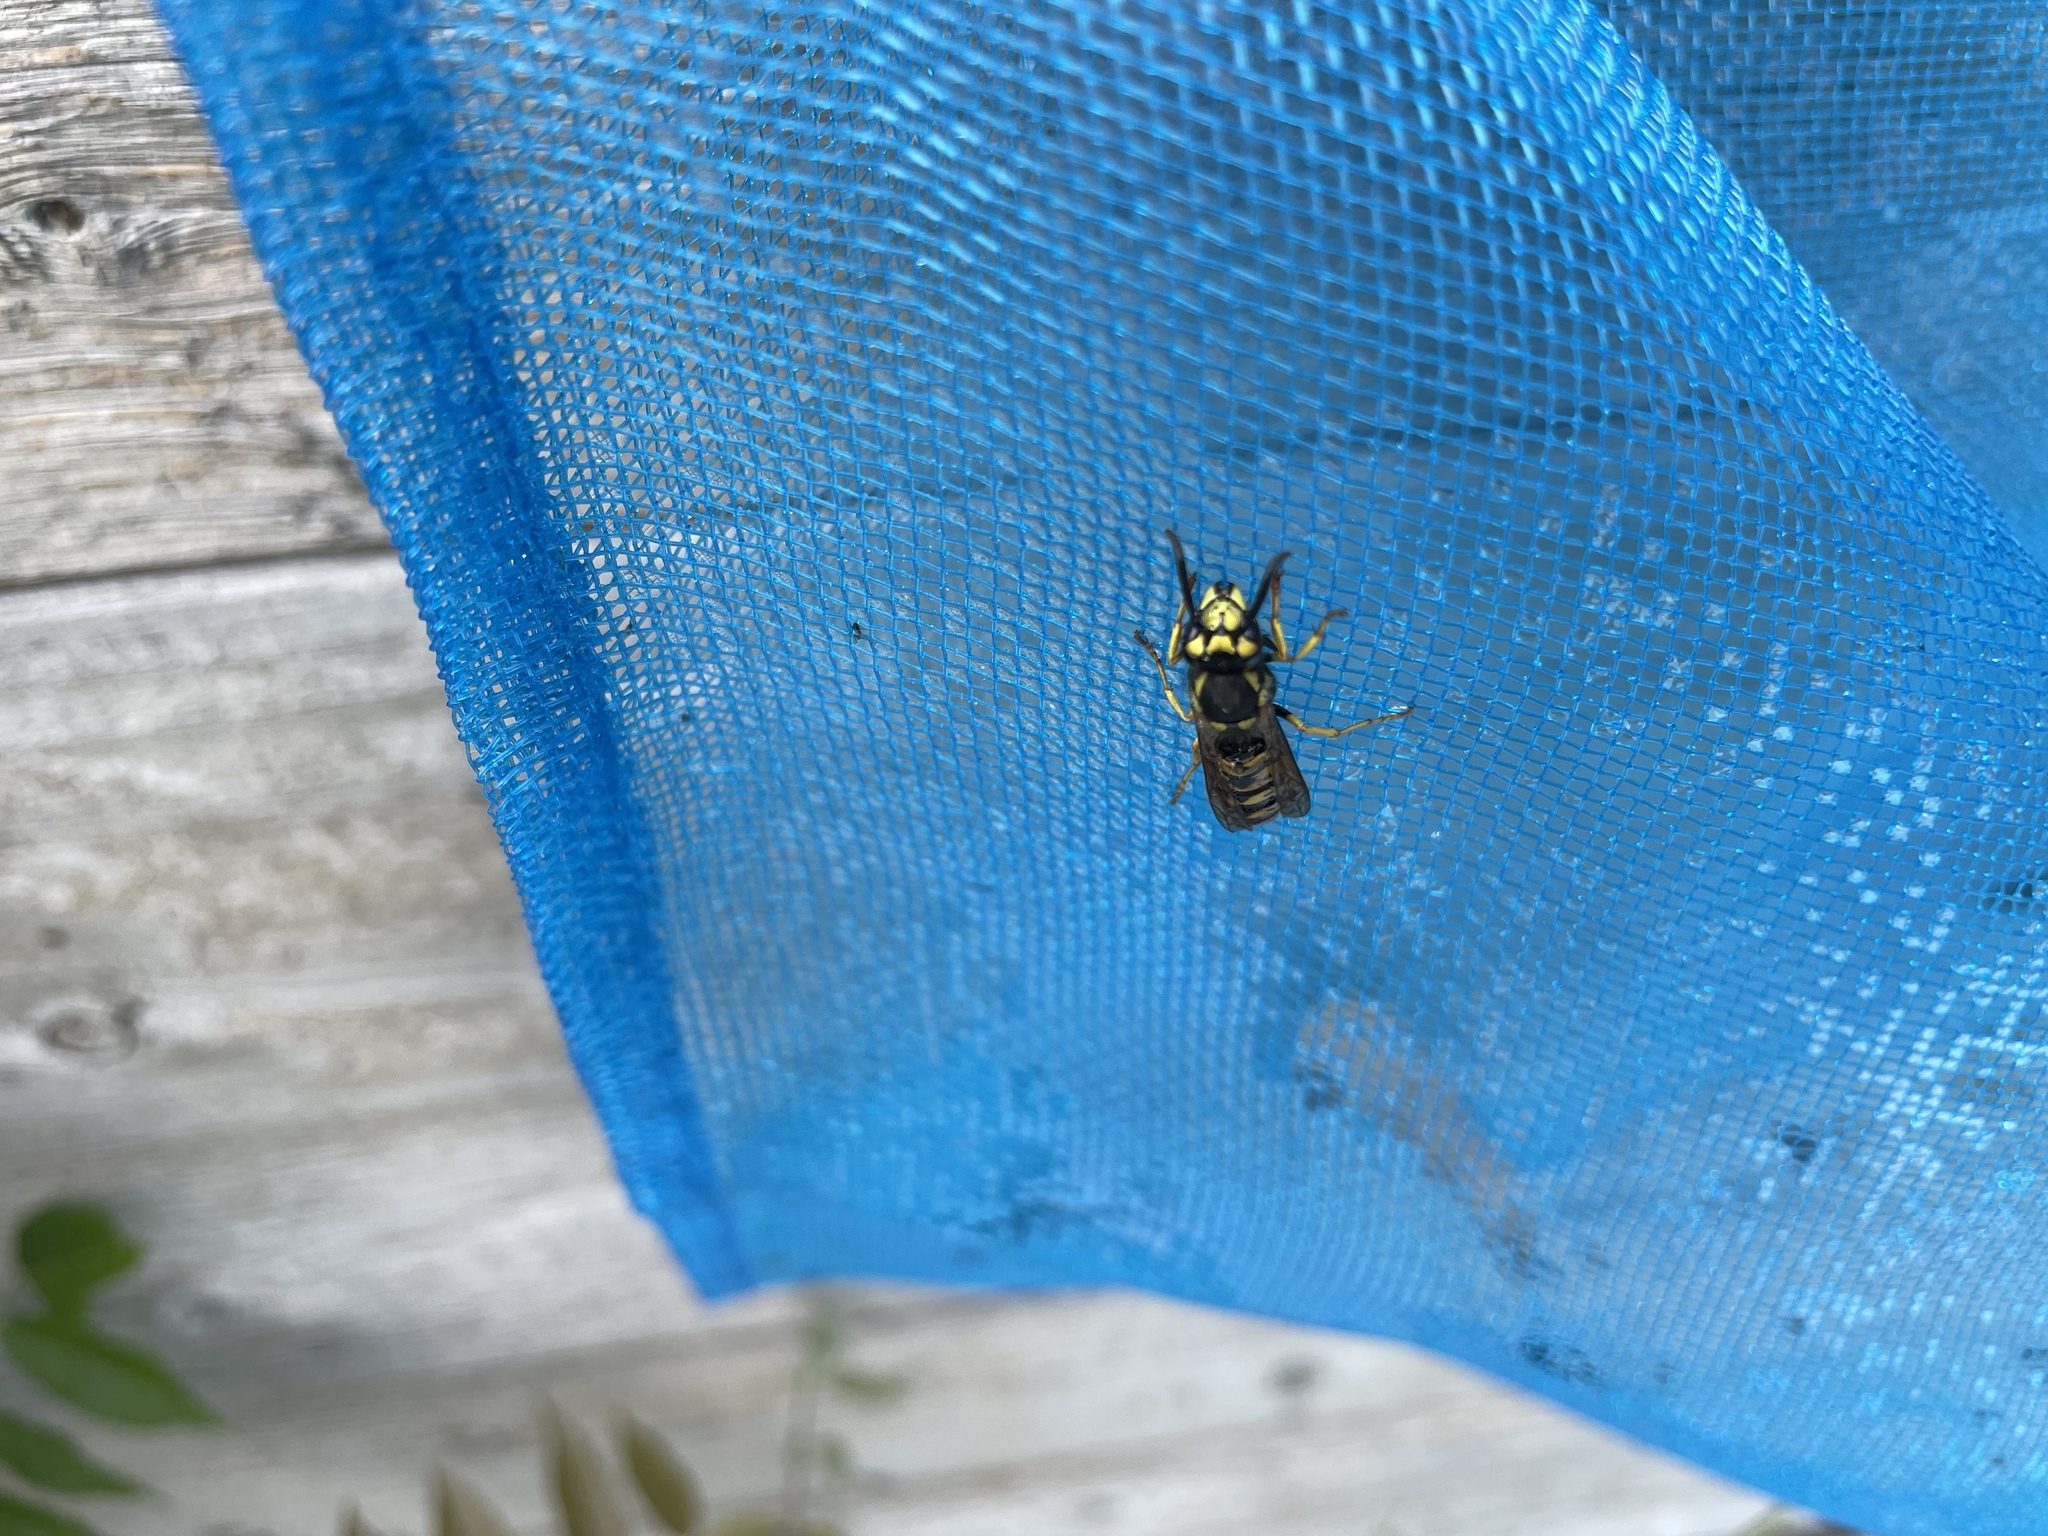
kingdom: Animalia
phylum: Arthropoda
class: Insecta
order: Hymenoptera
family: Vespidae
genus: Vespula
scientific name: Vespula germanica
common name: German wasp
